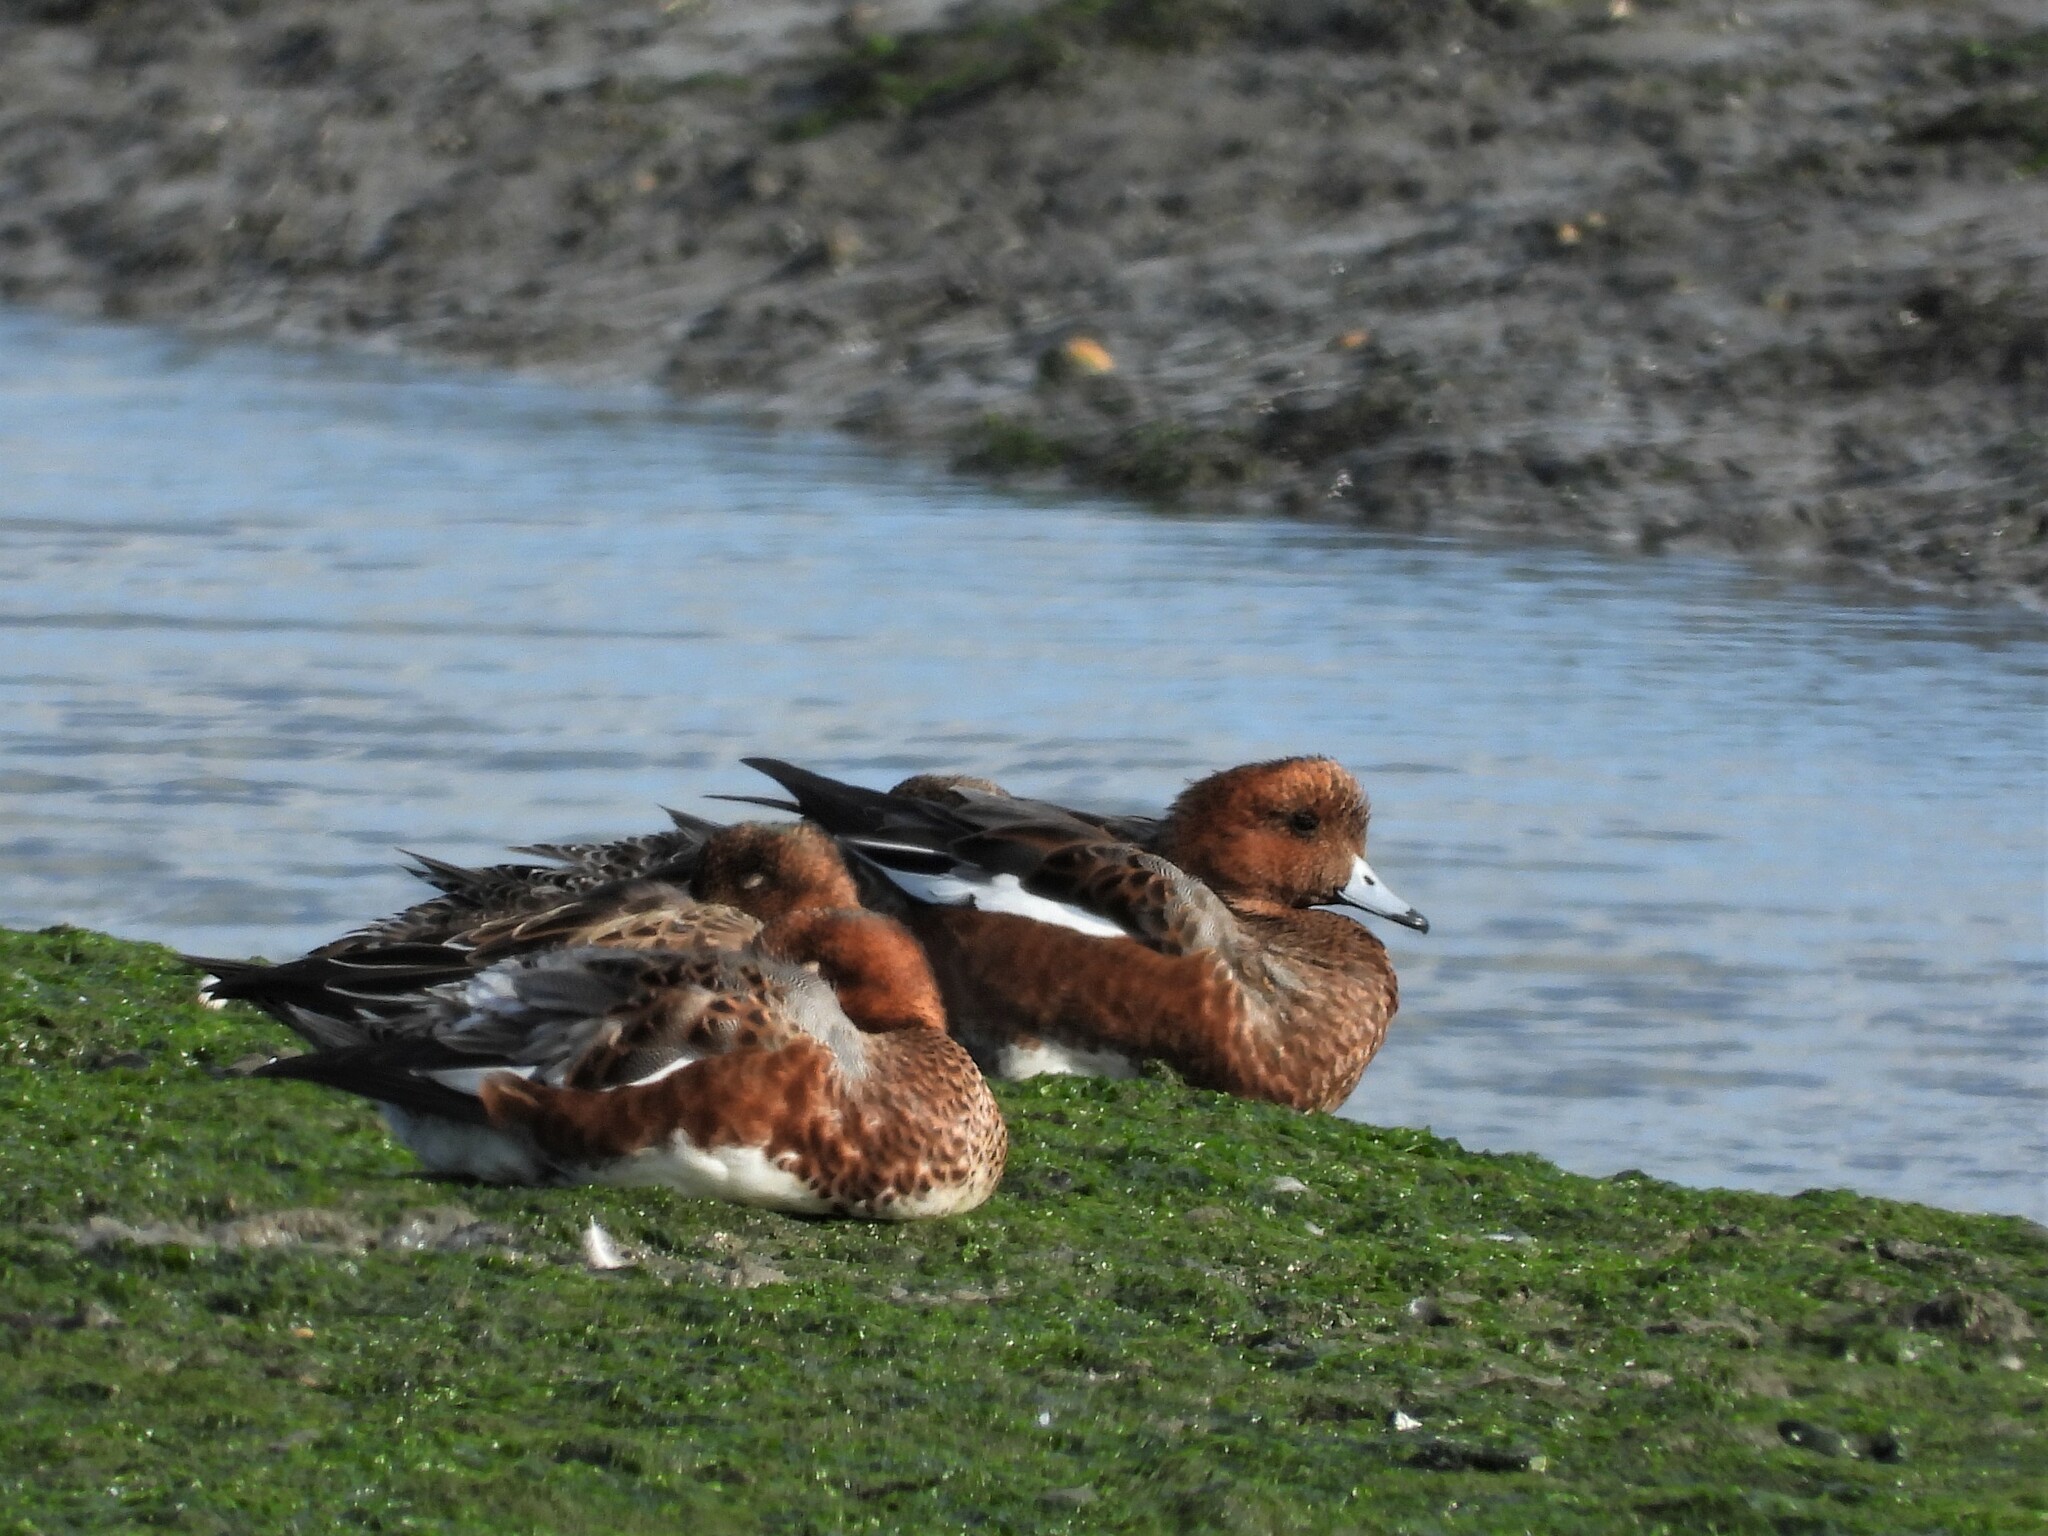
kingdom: Animalia
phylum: Chordata
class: Aves
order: Anseriformes
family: Anatidae
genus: Mareca
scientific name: Mareca penelope
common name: Eurasian wigeon
